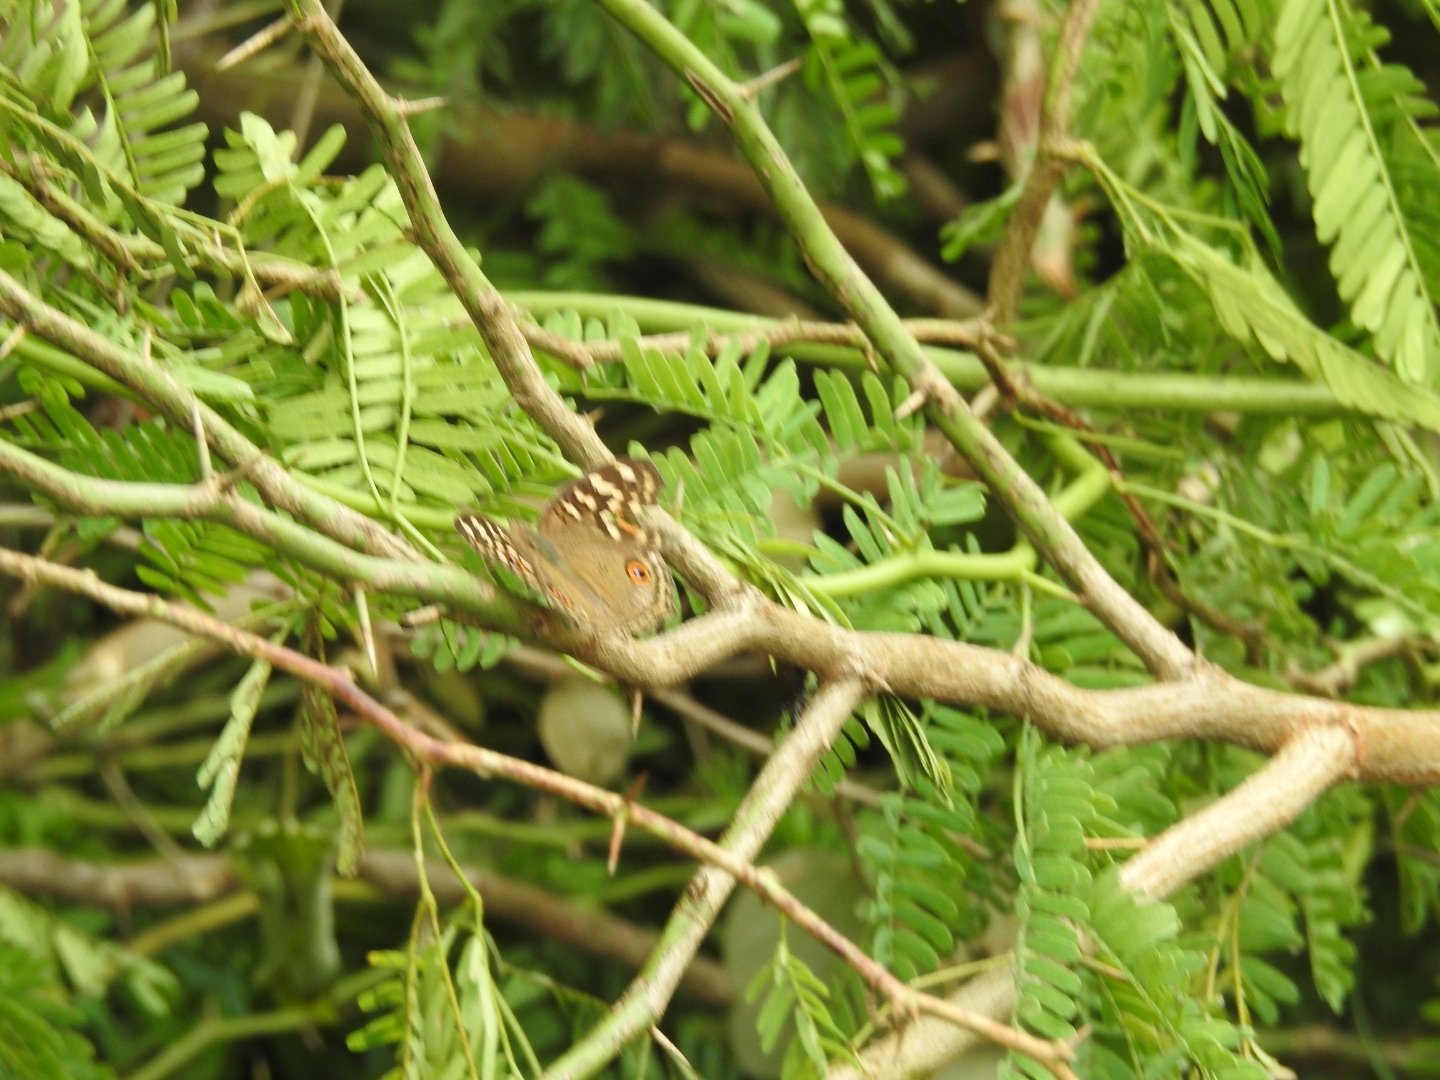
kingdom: Animalia
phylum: Arthropoda
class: Insecta
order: Lepidoptera
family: Nymphalidae
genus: Junonia
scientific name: Junonia lemonias
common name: Lemon pansy
